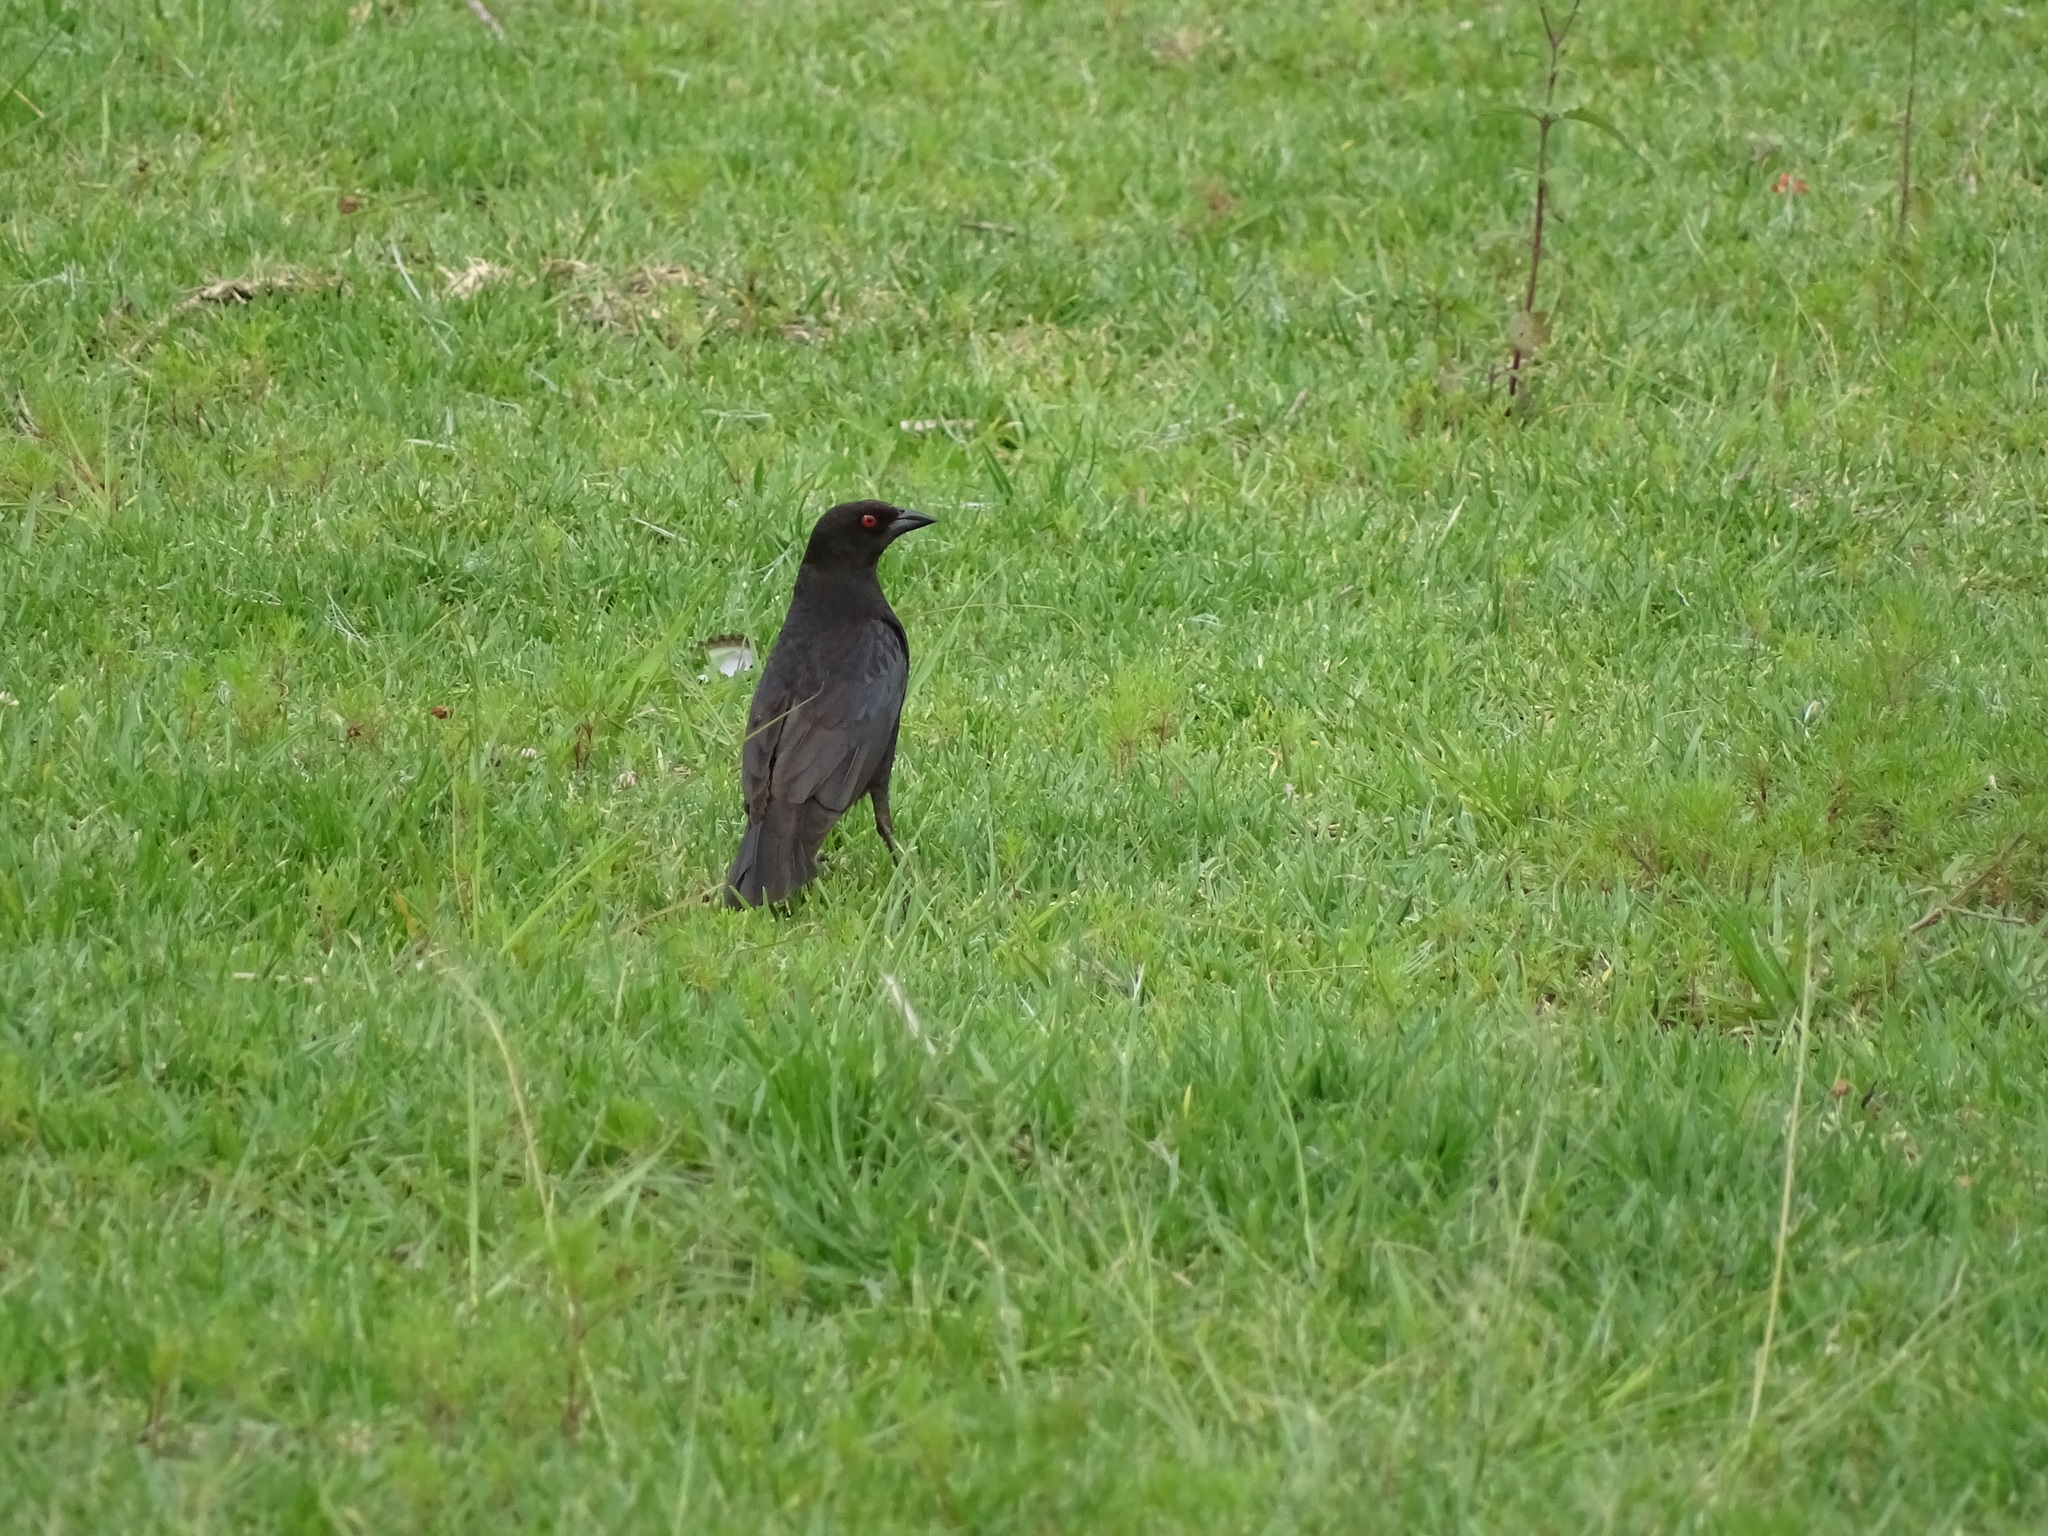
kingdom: Animalia
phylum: Chordata
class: Aves
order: Passeriformes
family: Icteridae
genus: Molothrus
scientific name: Molothrus aeneus
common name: Bronzed cowbird
